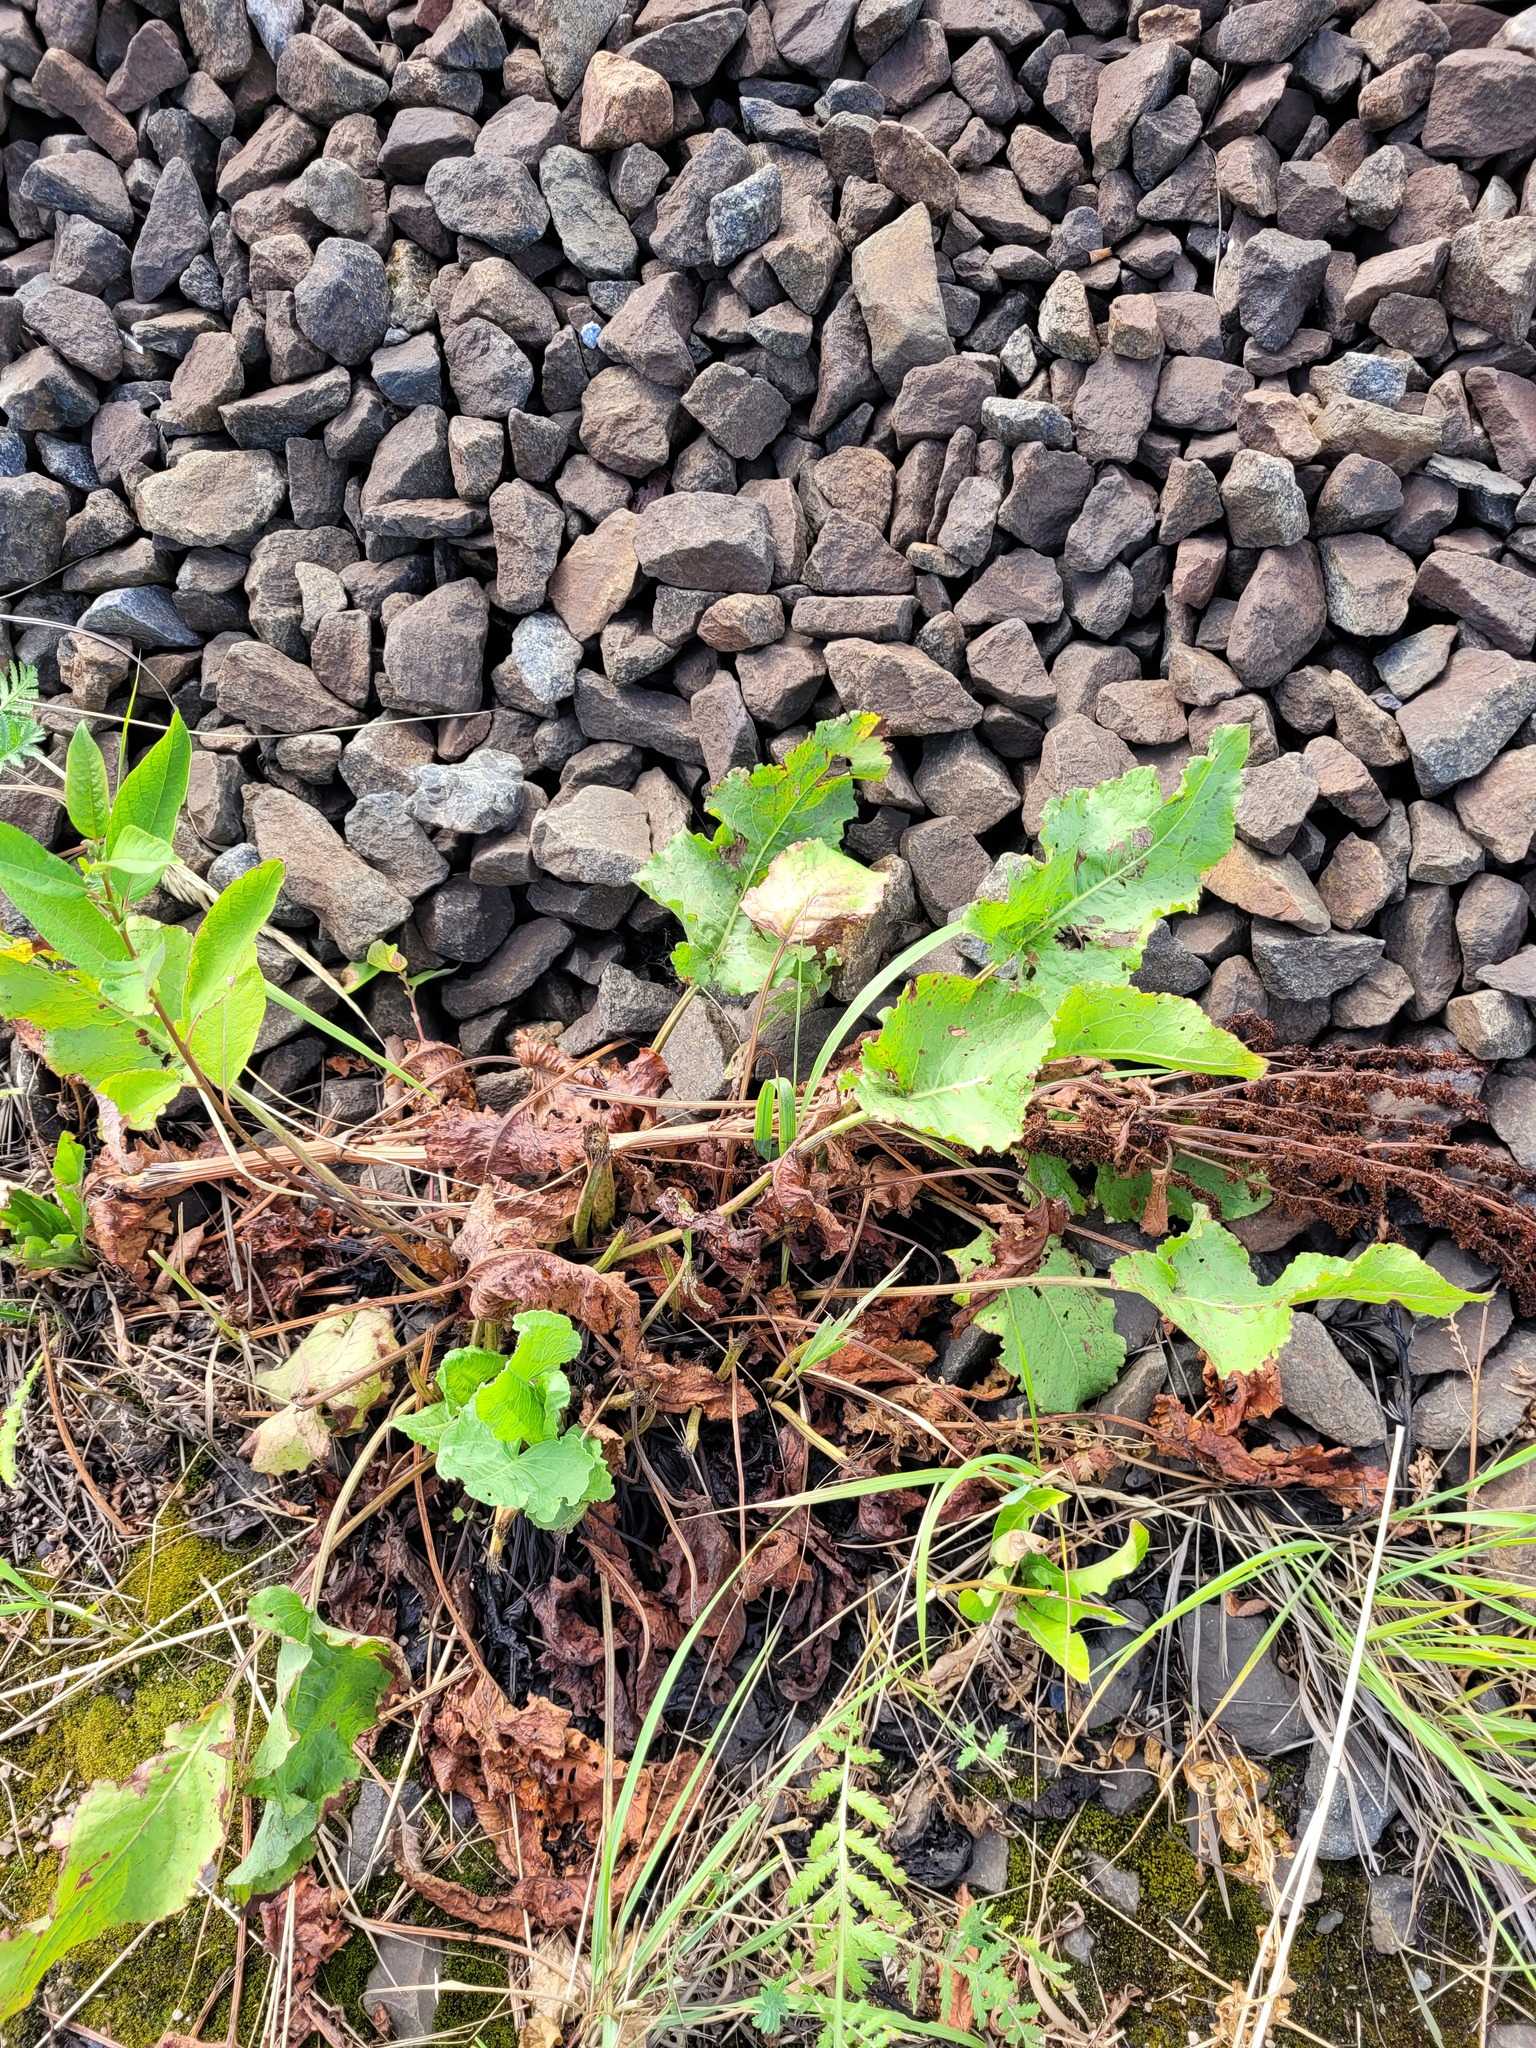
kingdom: Plantae
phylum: Tracheophyta
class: Magnoliopsida
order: Caryophyllales
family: Polygonaceae
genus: Rumex
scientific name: Rumex confertus
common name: Russian dock
